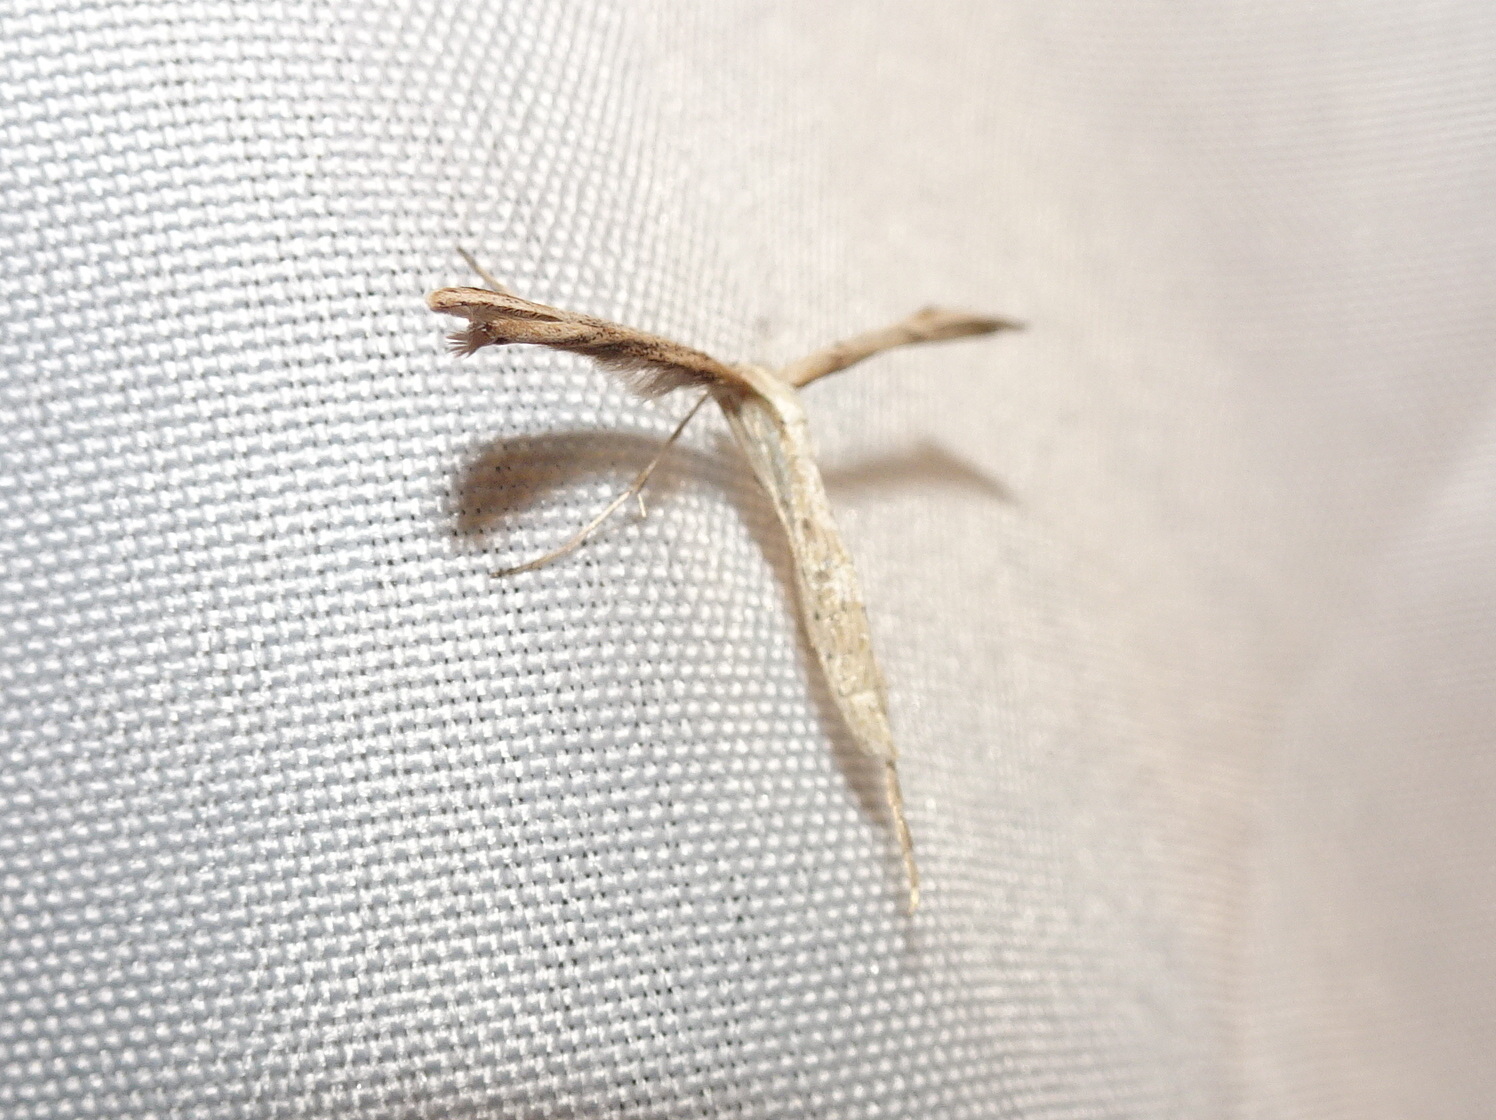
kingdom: Animalia
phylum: Arthropoda
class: Insecta
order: Lepidoptera
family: Pterophoridae
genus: Emmelina
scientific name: Emmelina monodactyla
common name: Common plume
